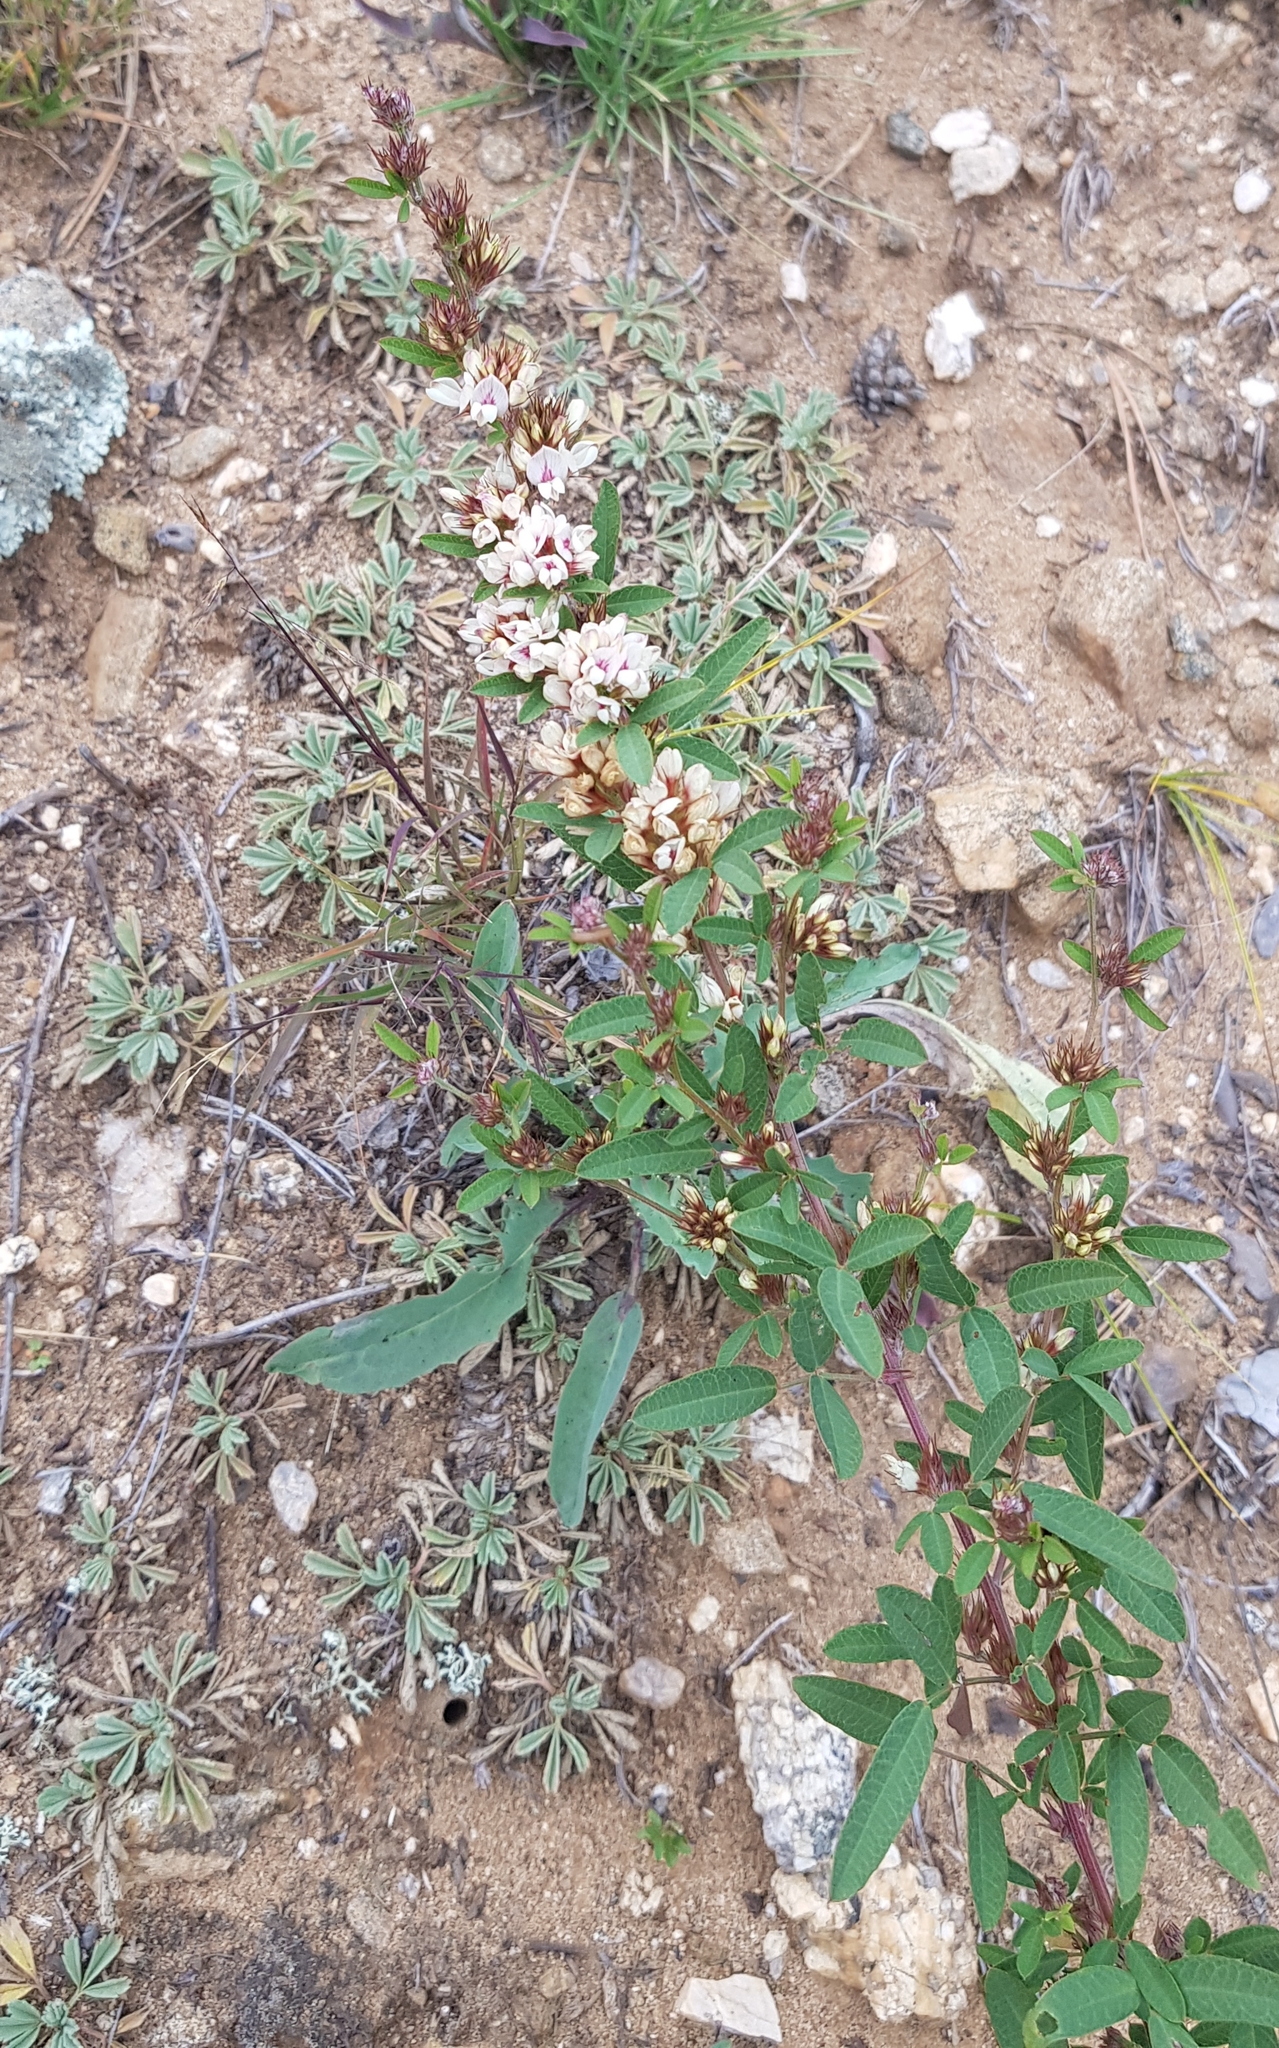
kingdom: Plantae
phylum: Tracheophyta
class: Magnoliopsida
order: Fabales
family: Fabaceae
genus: Lespedeza
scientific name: Lespedeza daurica
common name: Dahurian lespedeza
